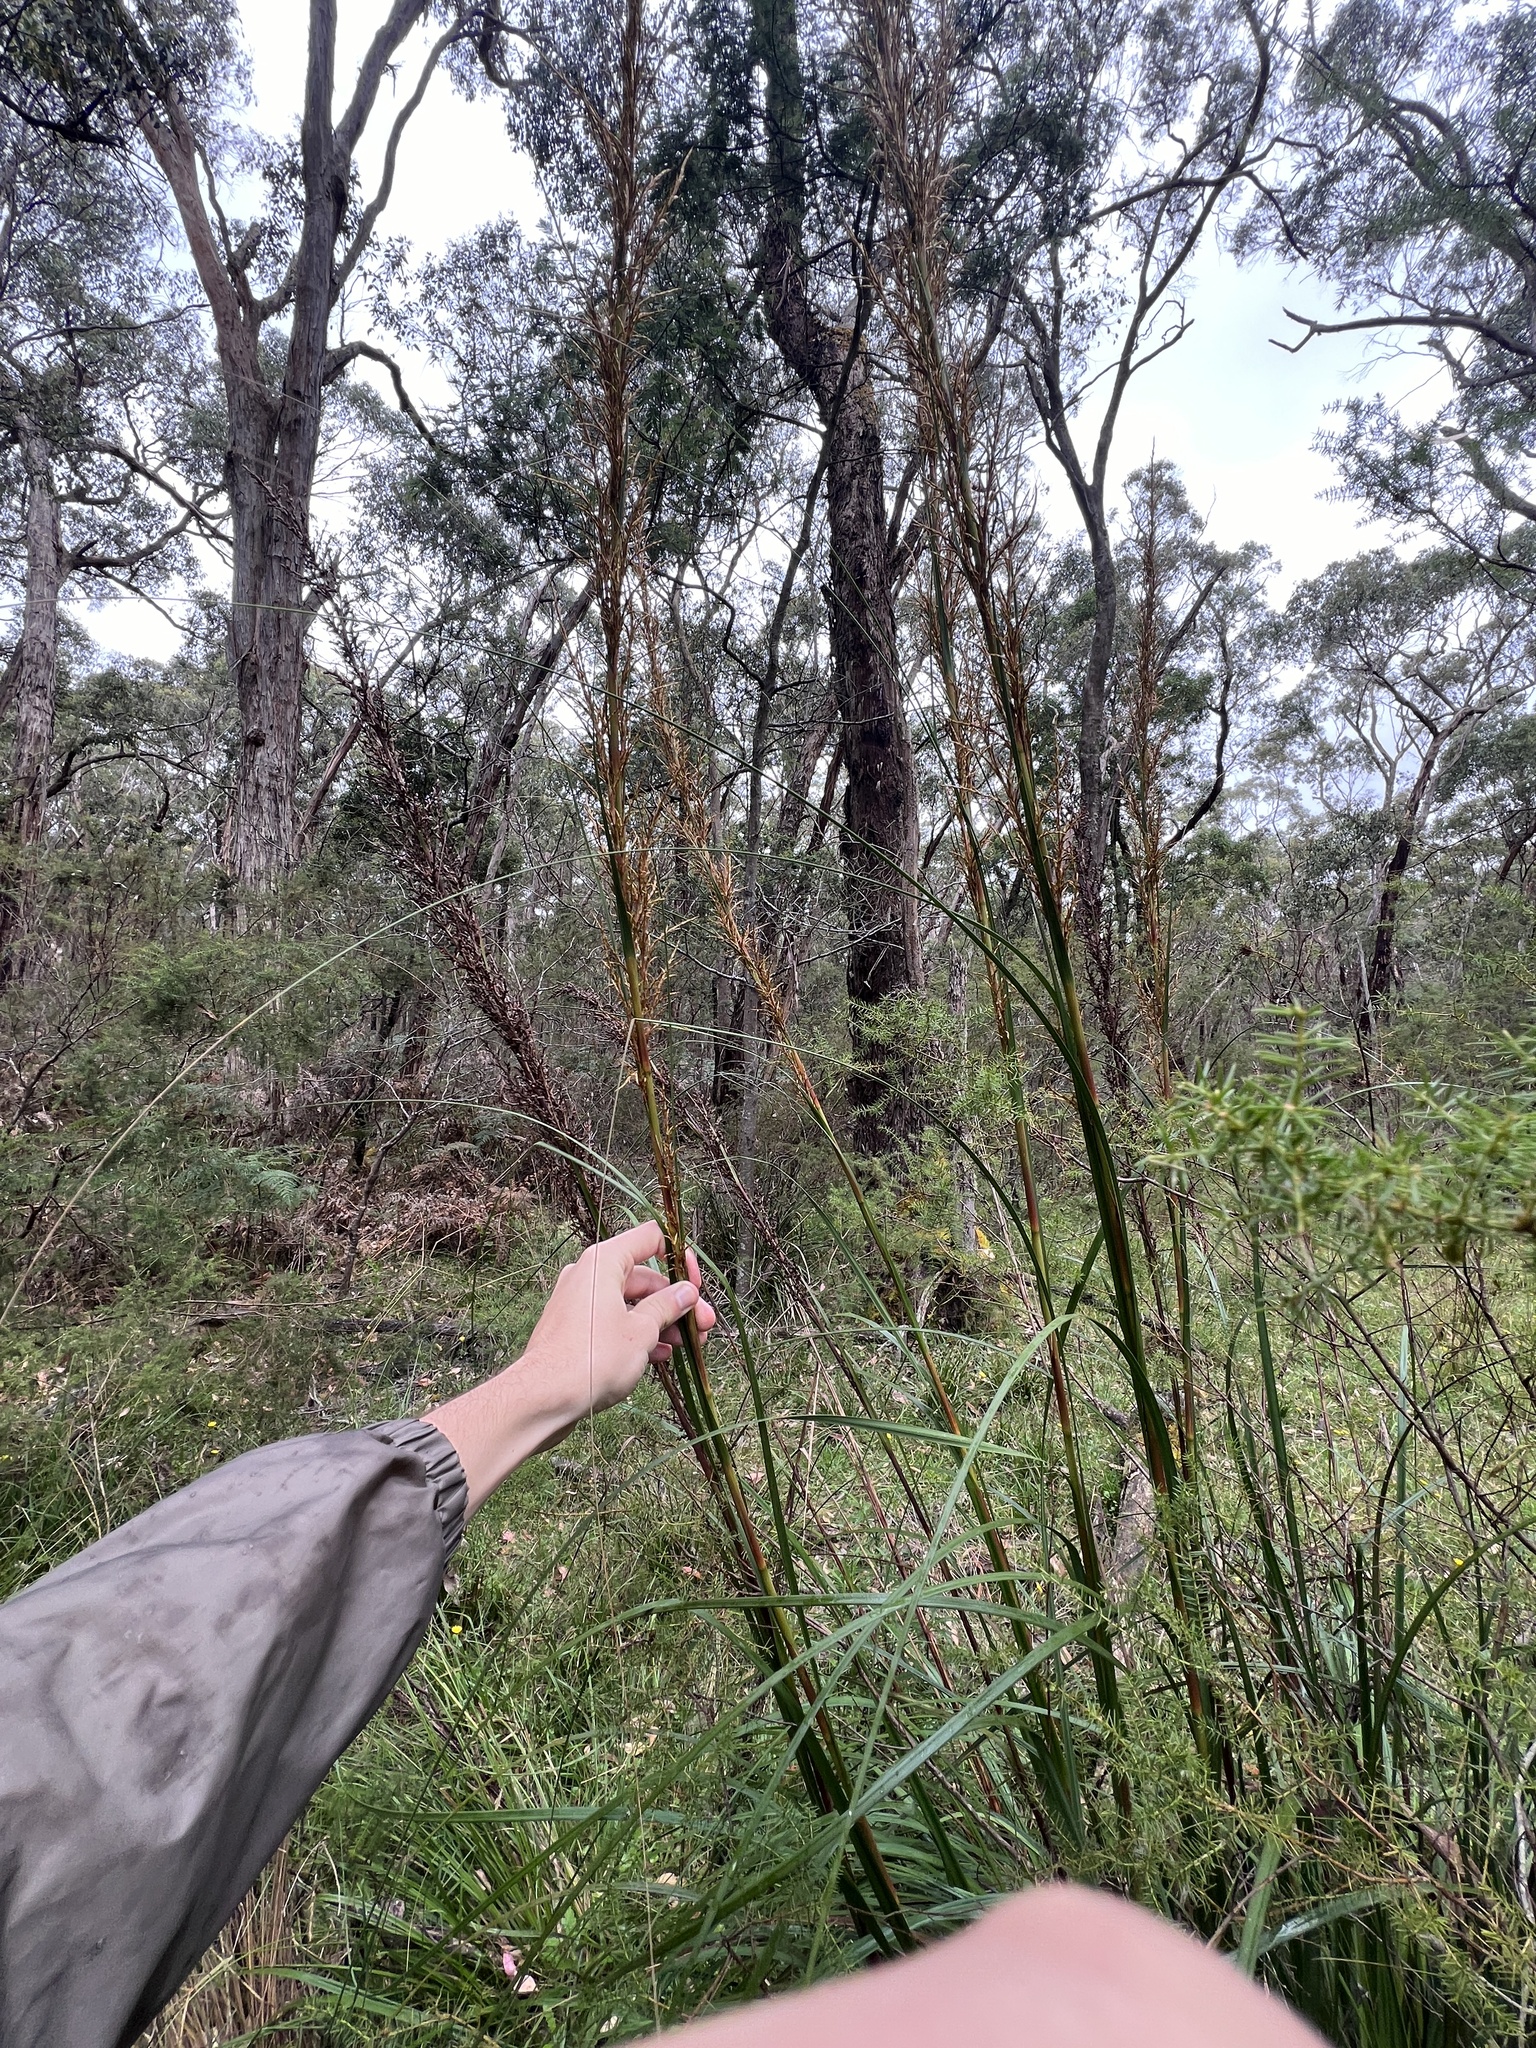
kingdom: Plantae
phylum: Tracheophyta
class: Liliopsida
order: Poales
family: Cyperaceae
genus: Gahnia
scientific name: Gahnia sieberiana
